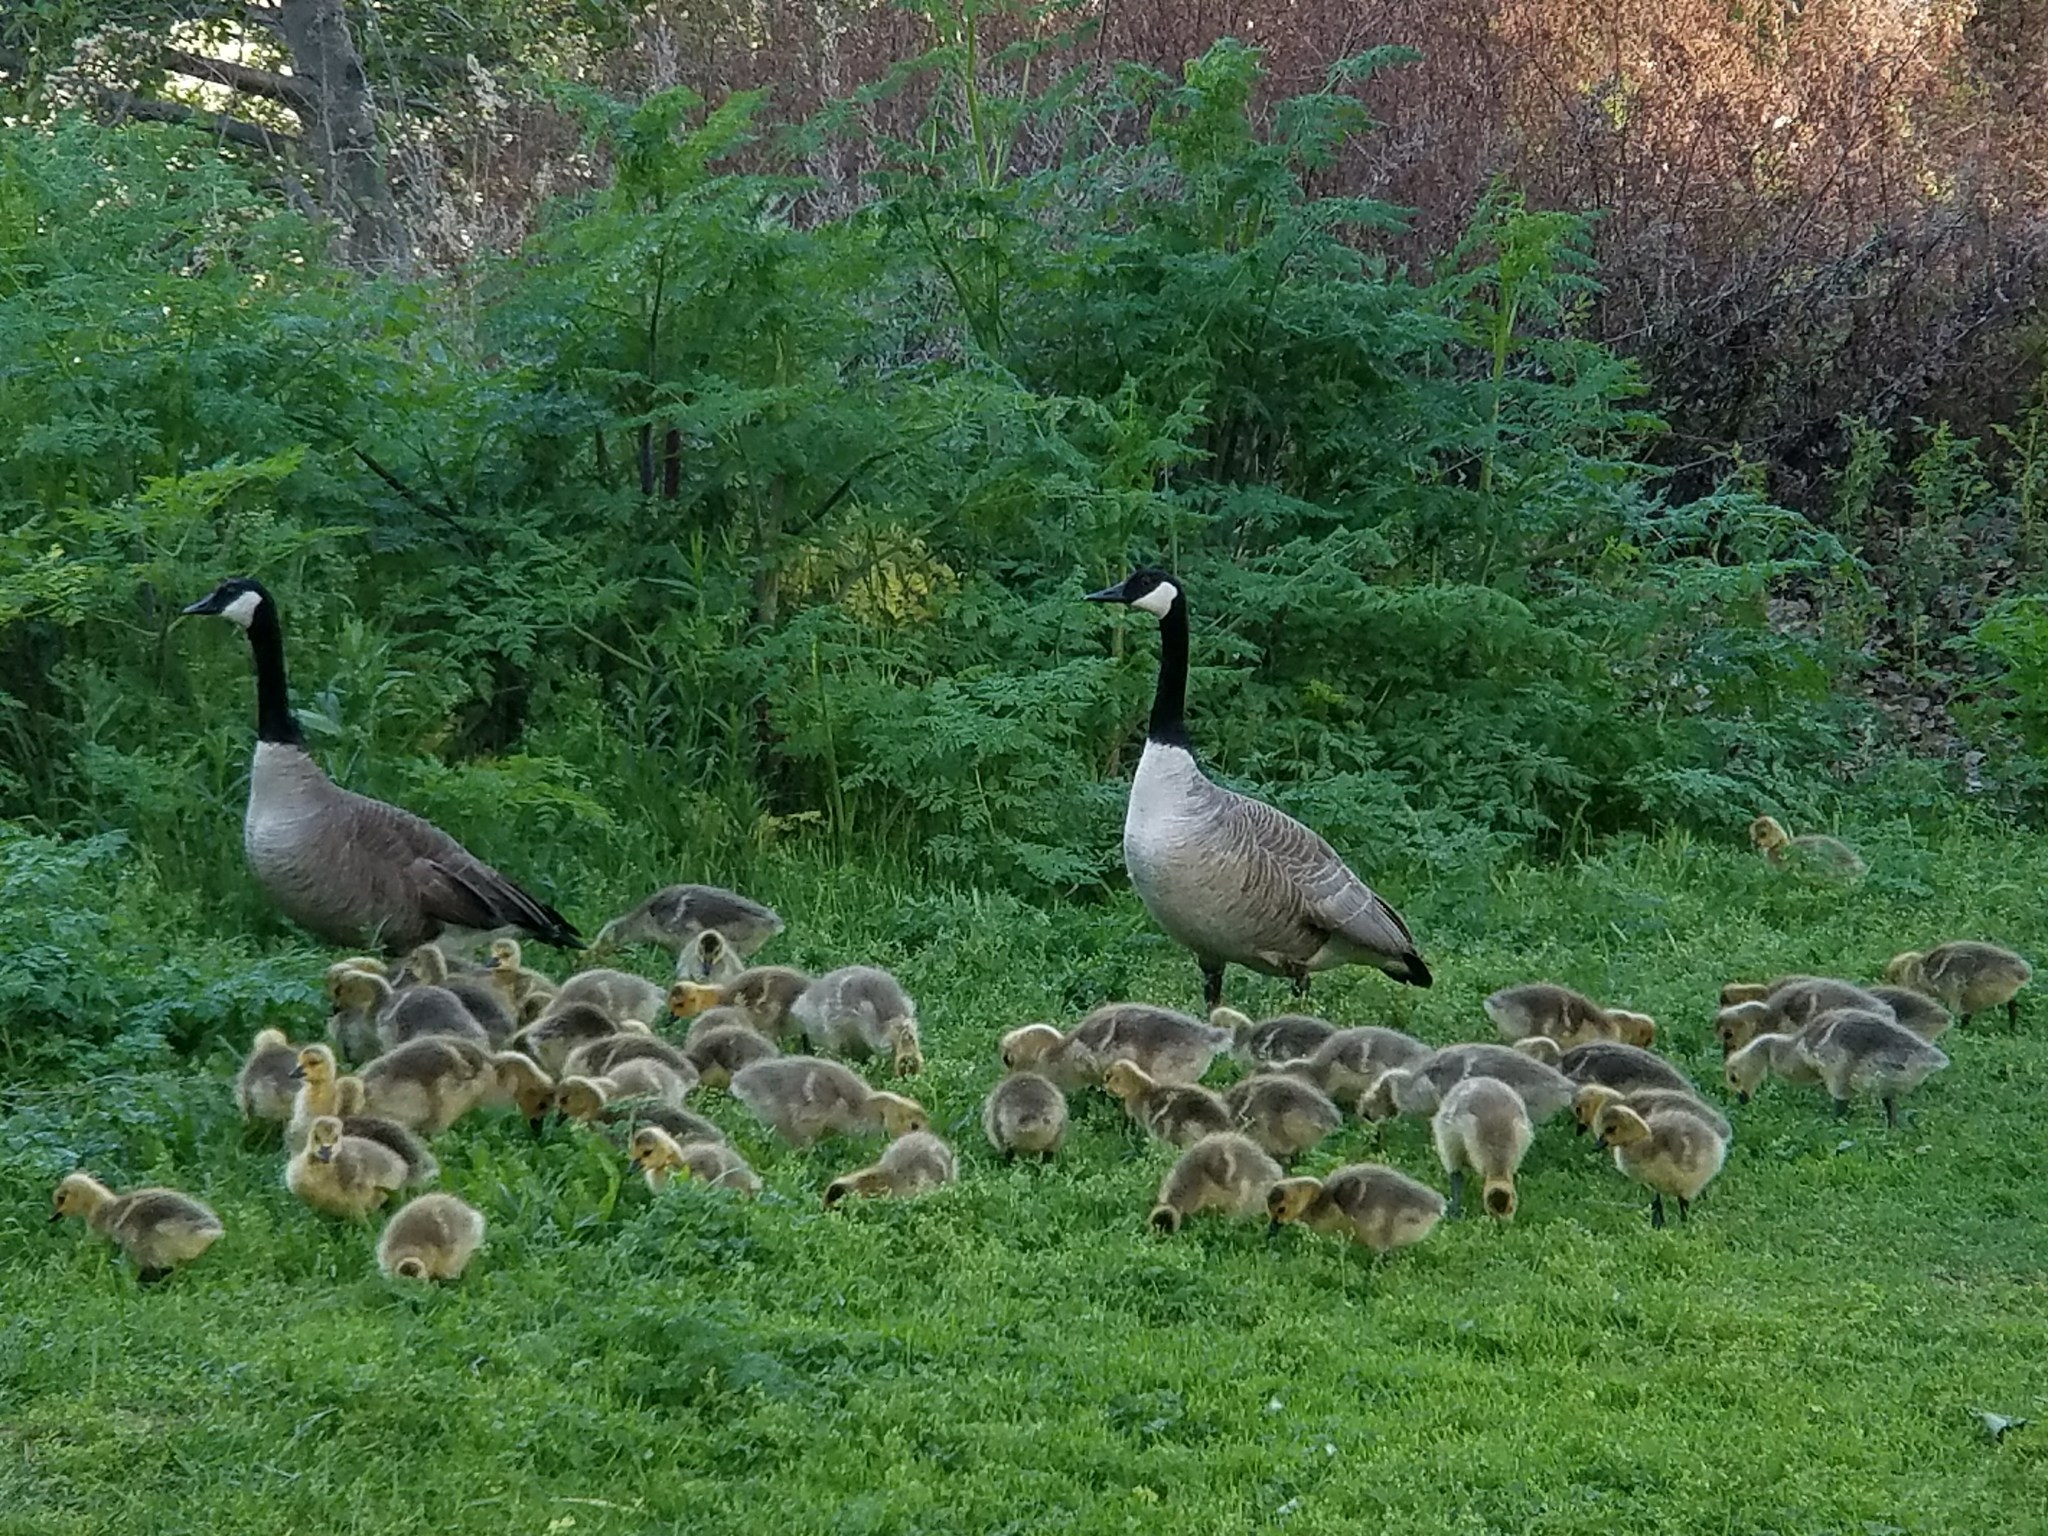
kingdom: Animalia
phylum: Chordata
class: Aves
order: Anseriformes
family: Anatidae
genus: Branta
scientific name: Branta canadensis
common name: Canada goose
